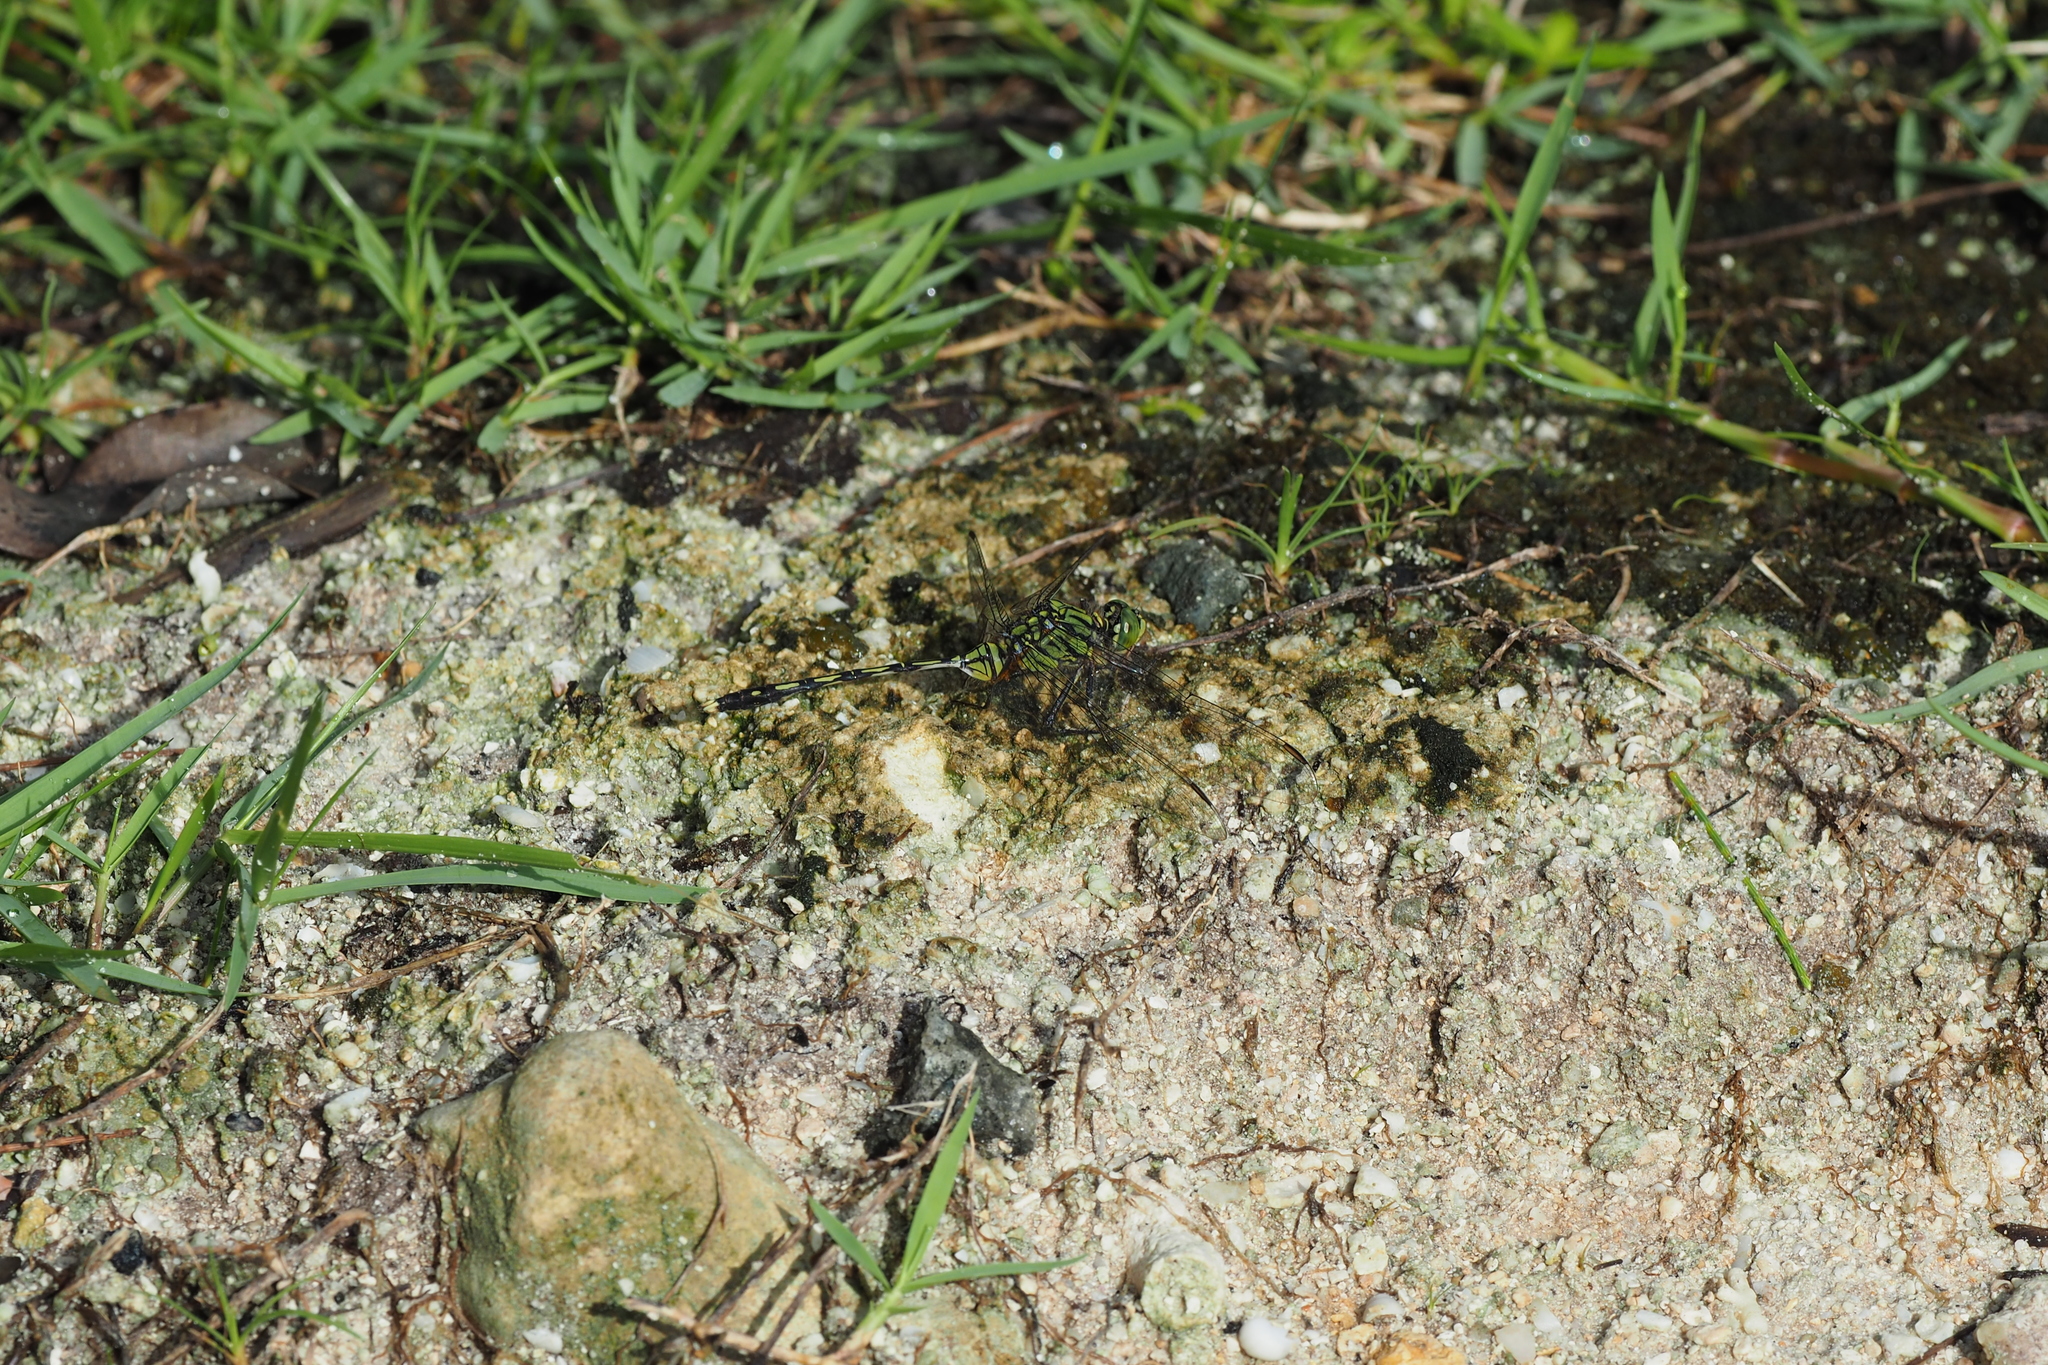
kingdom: Animalia
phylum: Arthropoda
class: Insecta
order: Odonata
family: Libellulidae
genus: Orthetrum
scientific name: Orthetrum serapia
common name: Green skimmer
